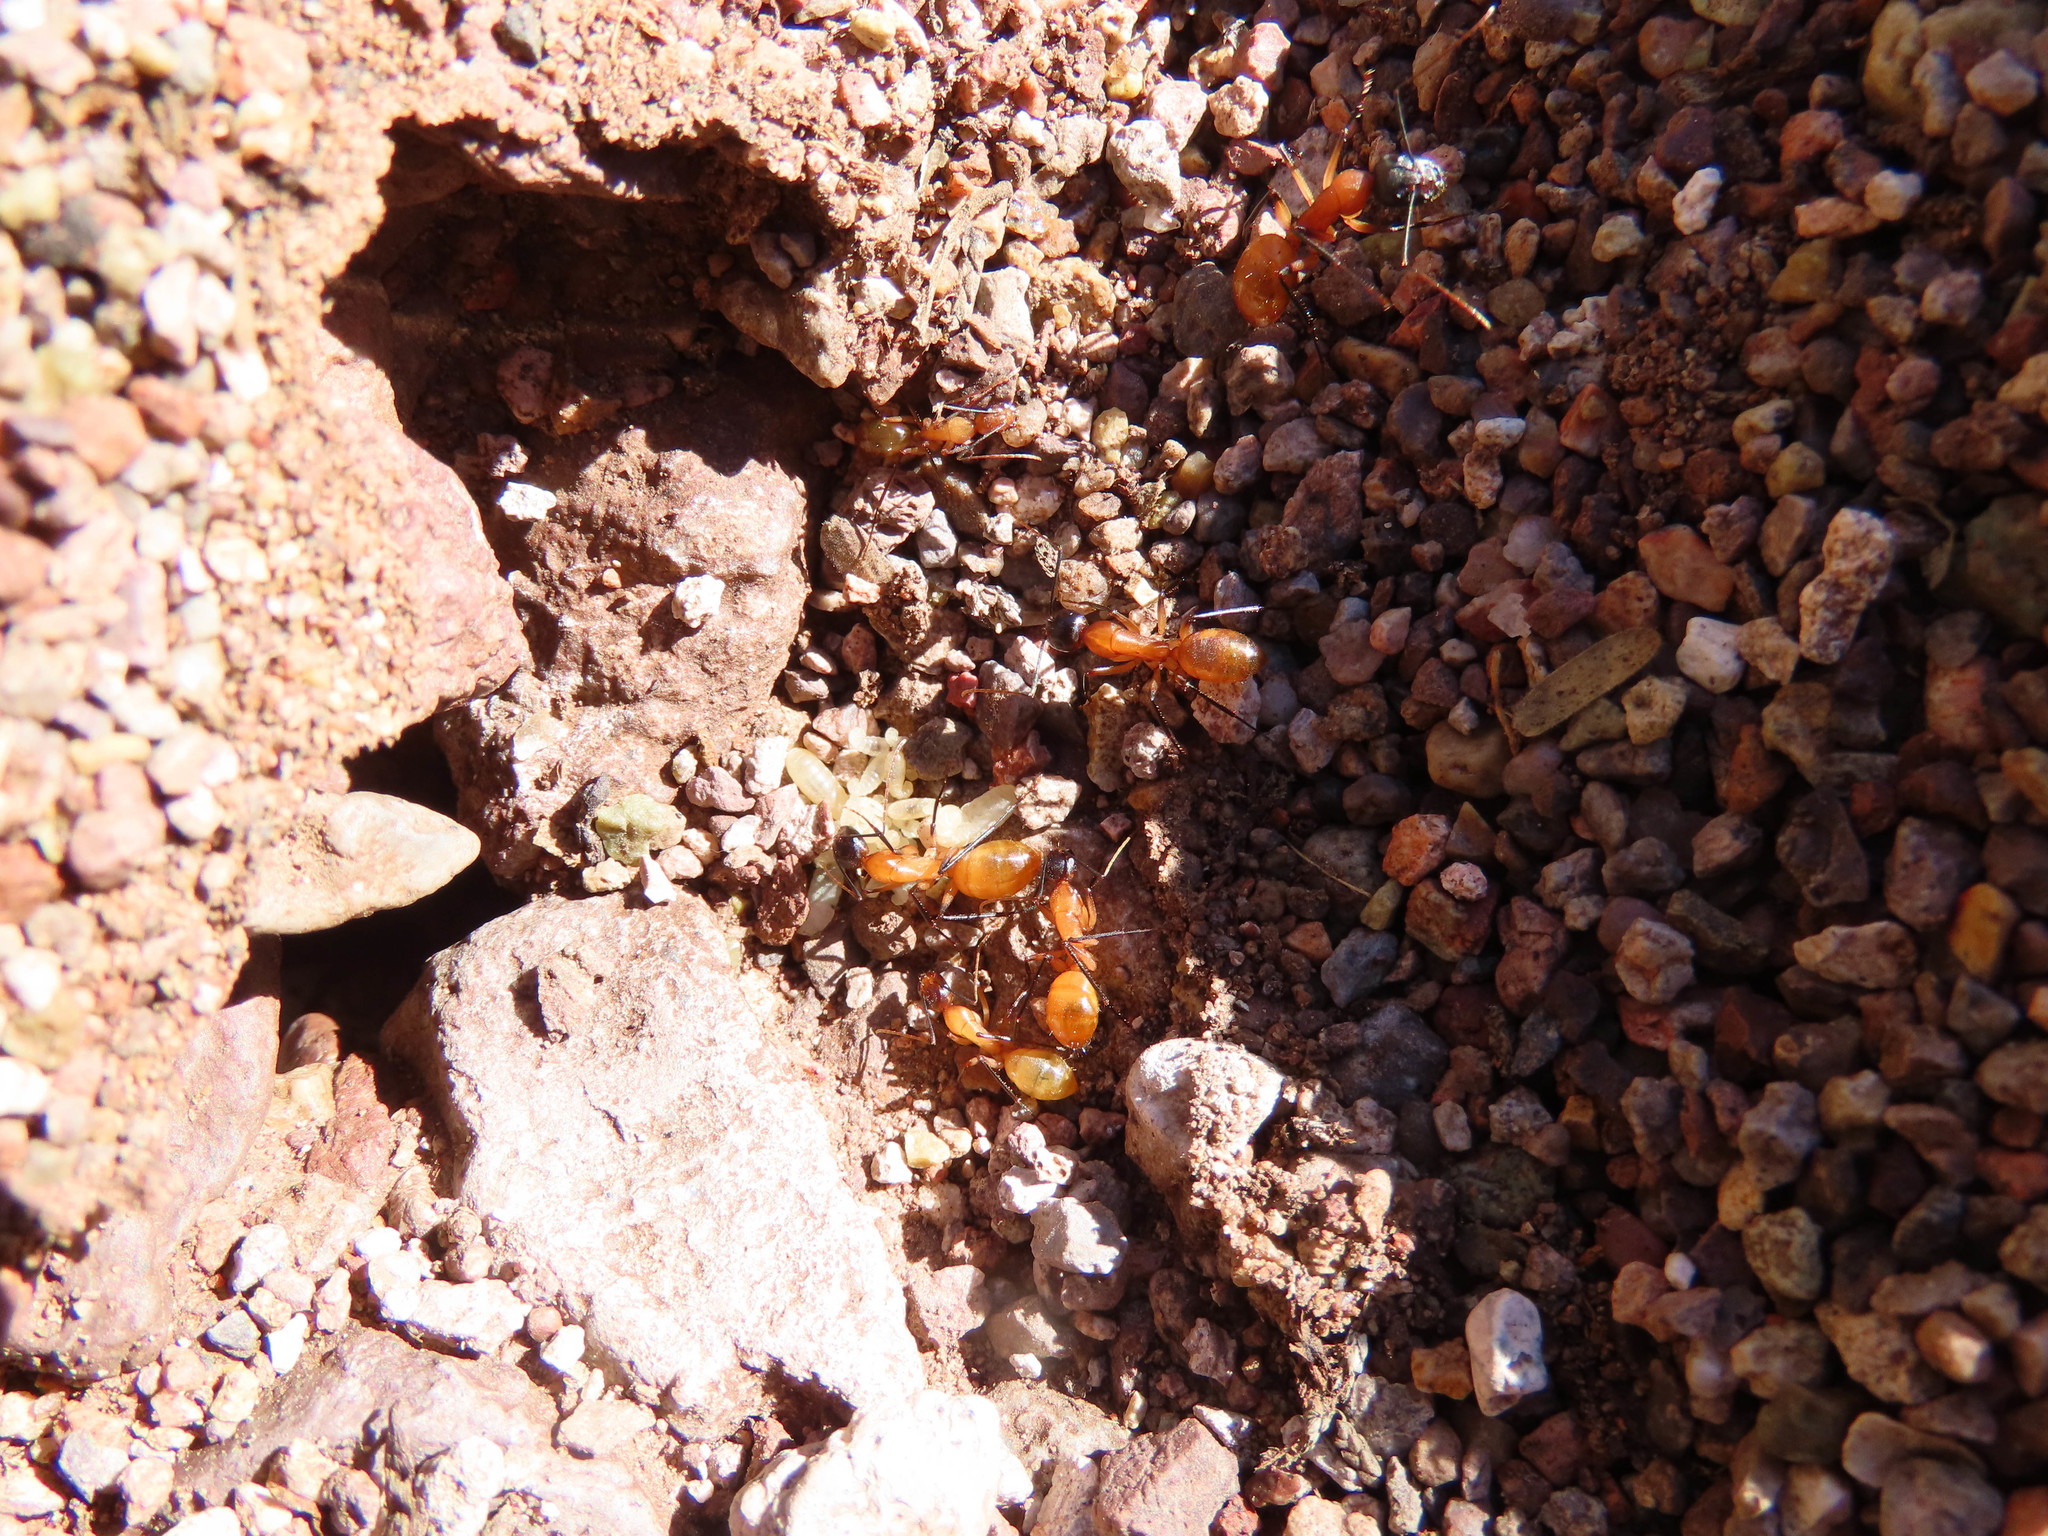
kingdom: Animalia
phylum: Arthropoda
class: Insecta
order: Hymenoptera
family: Formicidae
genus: Camponotus
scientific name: Camponotus ocreatus
